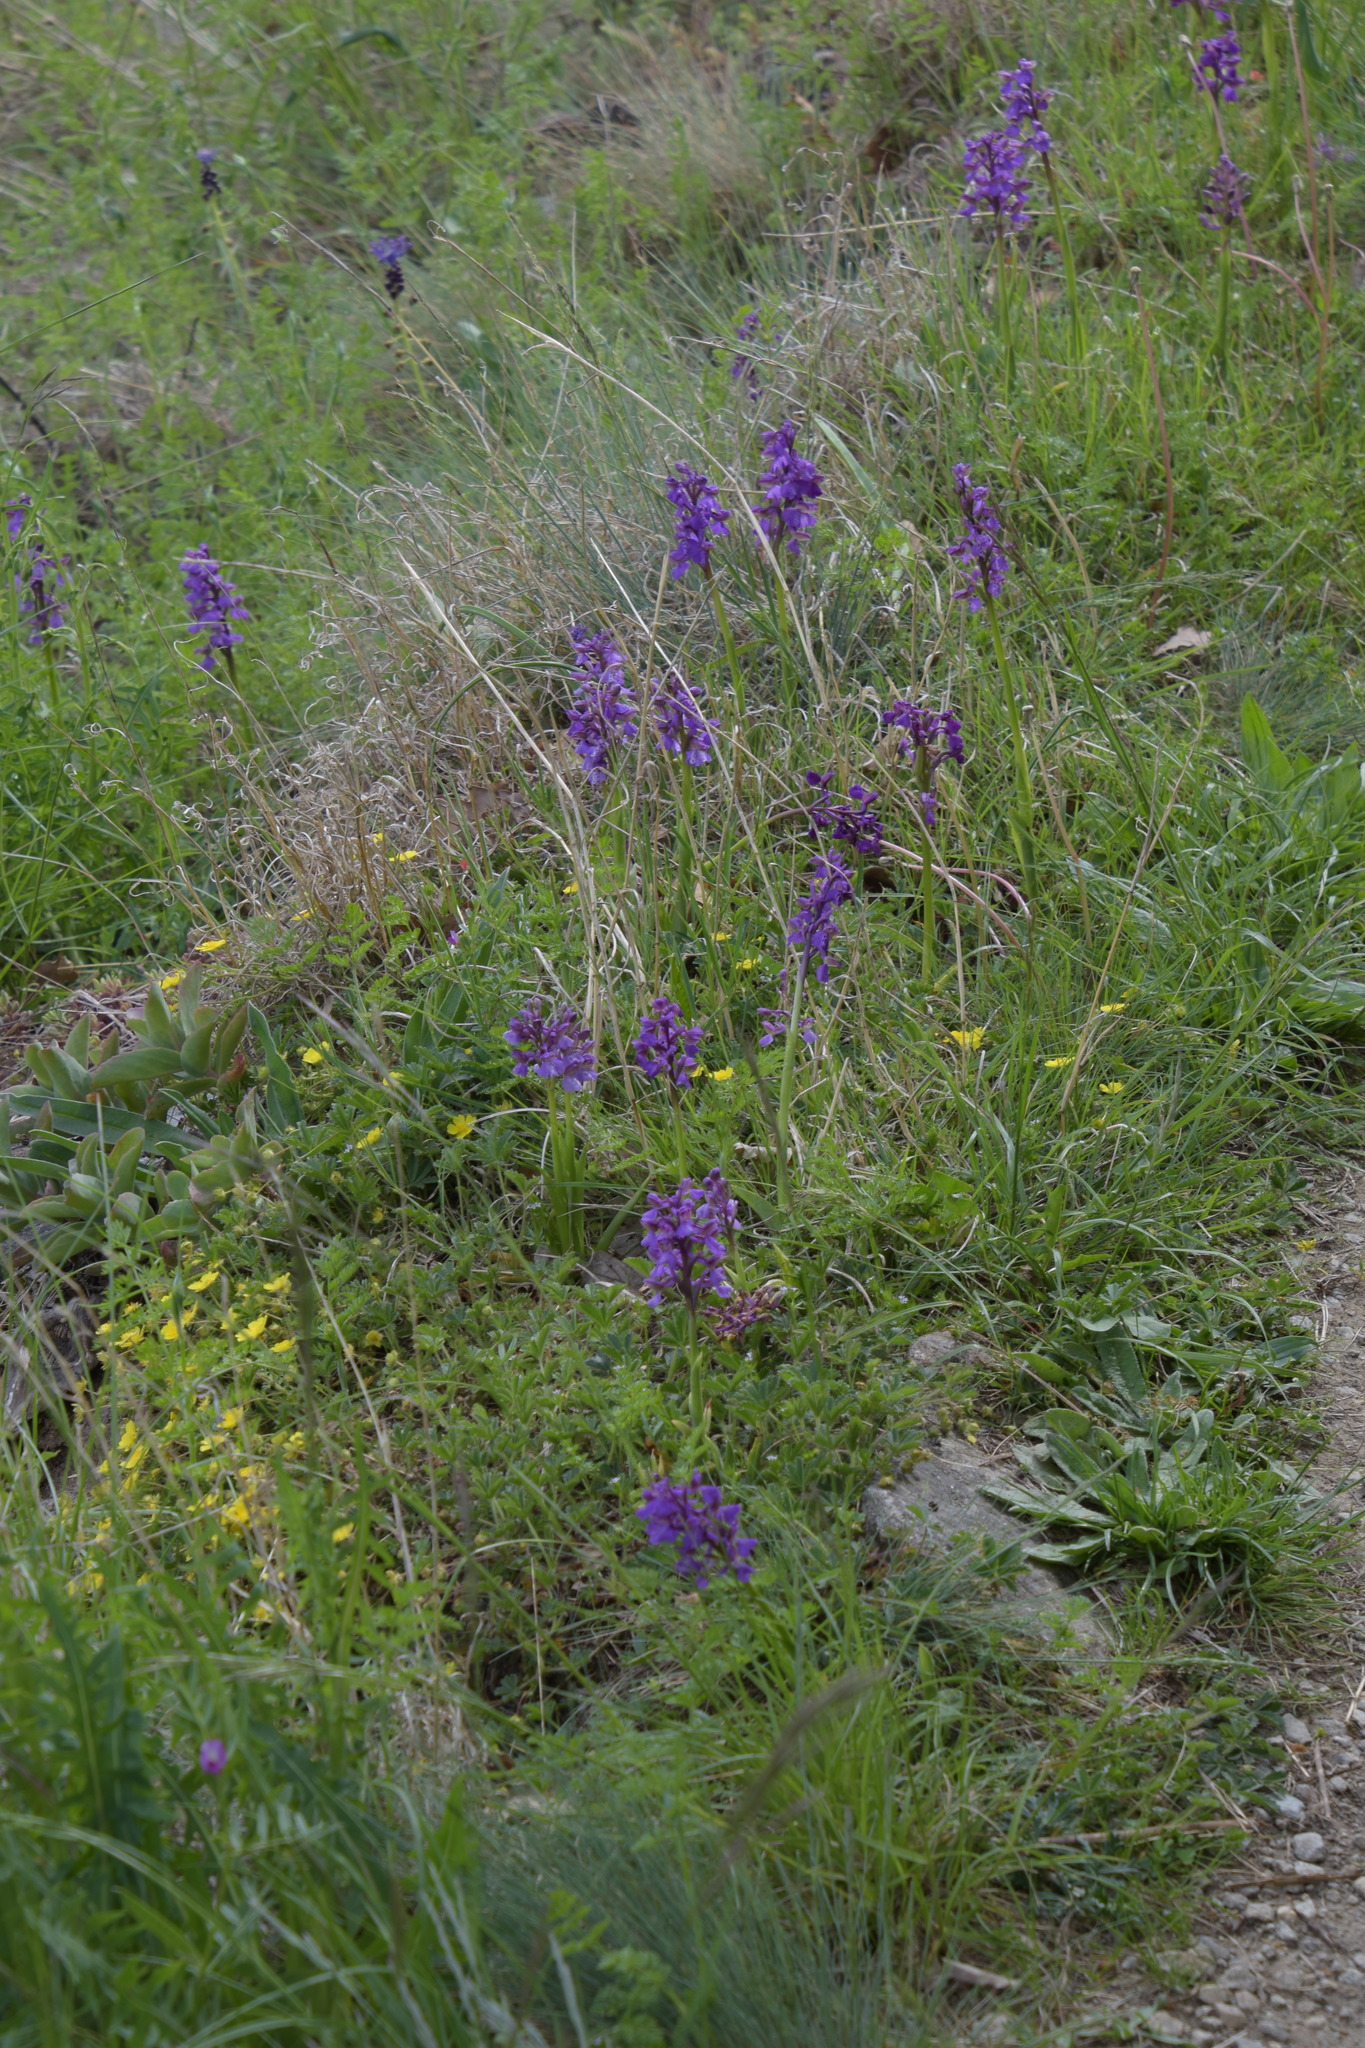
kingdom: Plantae
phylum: Tracheophyta
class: Liliopsida
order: Asparagales
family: Orchidaceae
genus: Anacamptis
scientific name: Anacamptis morio
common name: Green-winged orchid
